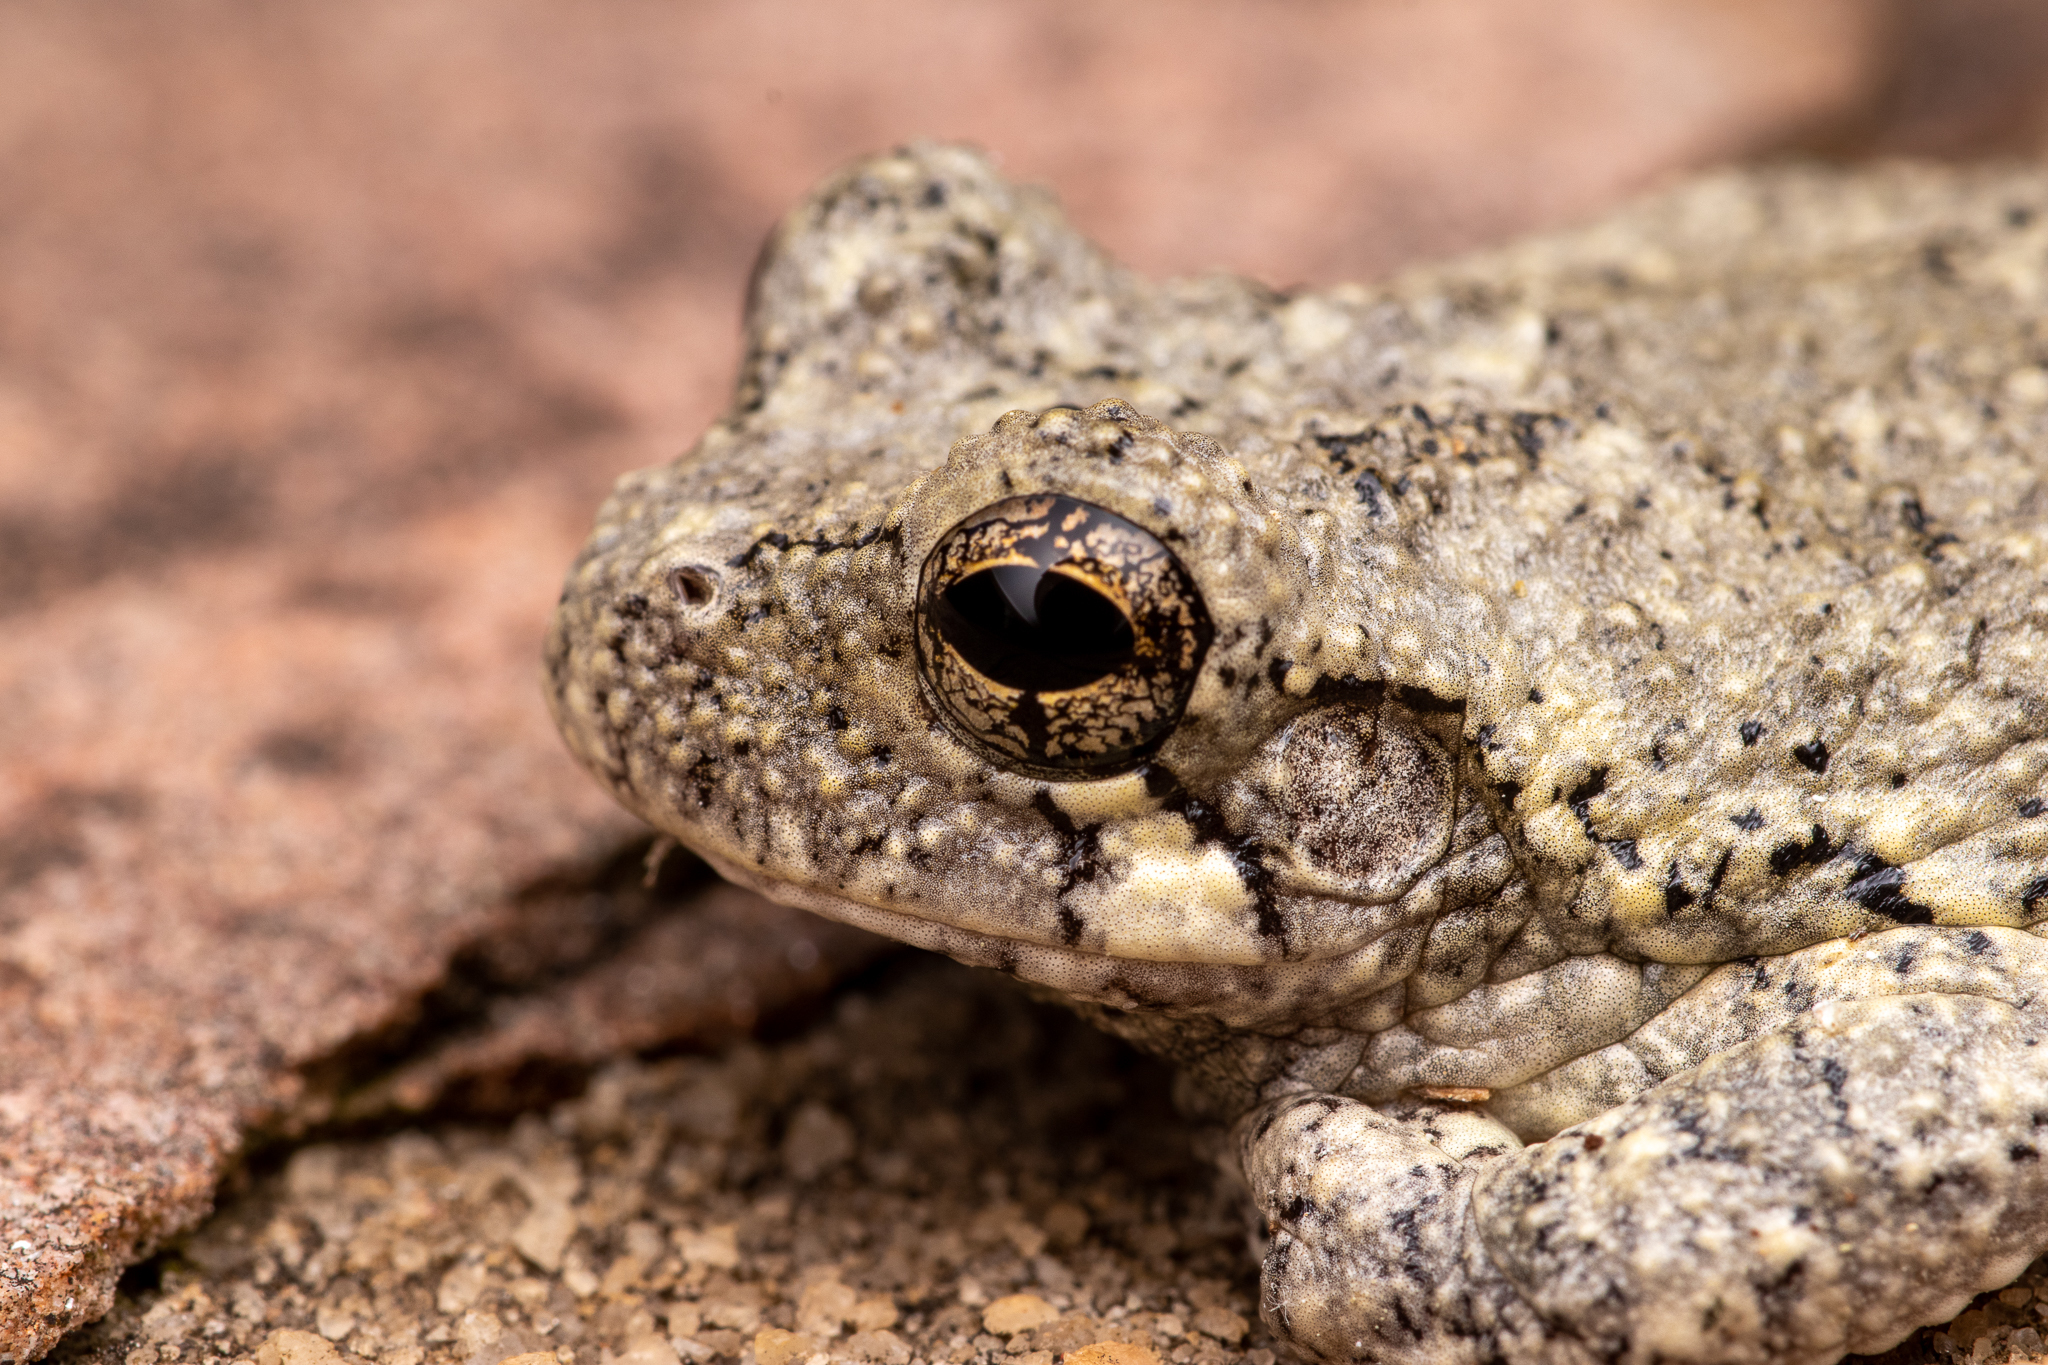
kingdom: Animalia
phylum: Chordata
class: Amphibia
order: Anura
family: Hylidae
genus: Dryophytes
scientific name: Dryophytes chrysoscelis
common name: Cope's gray treefrog
